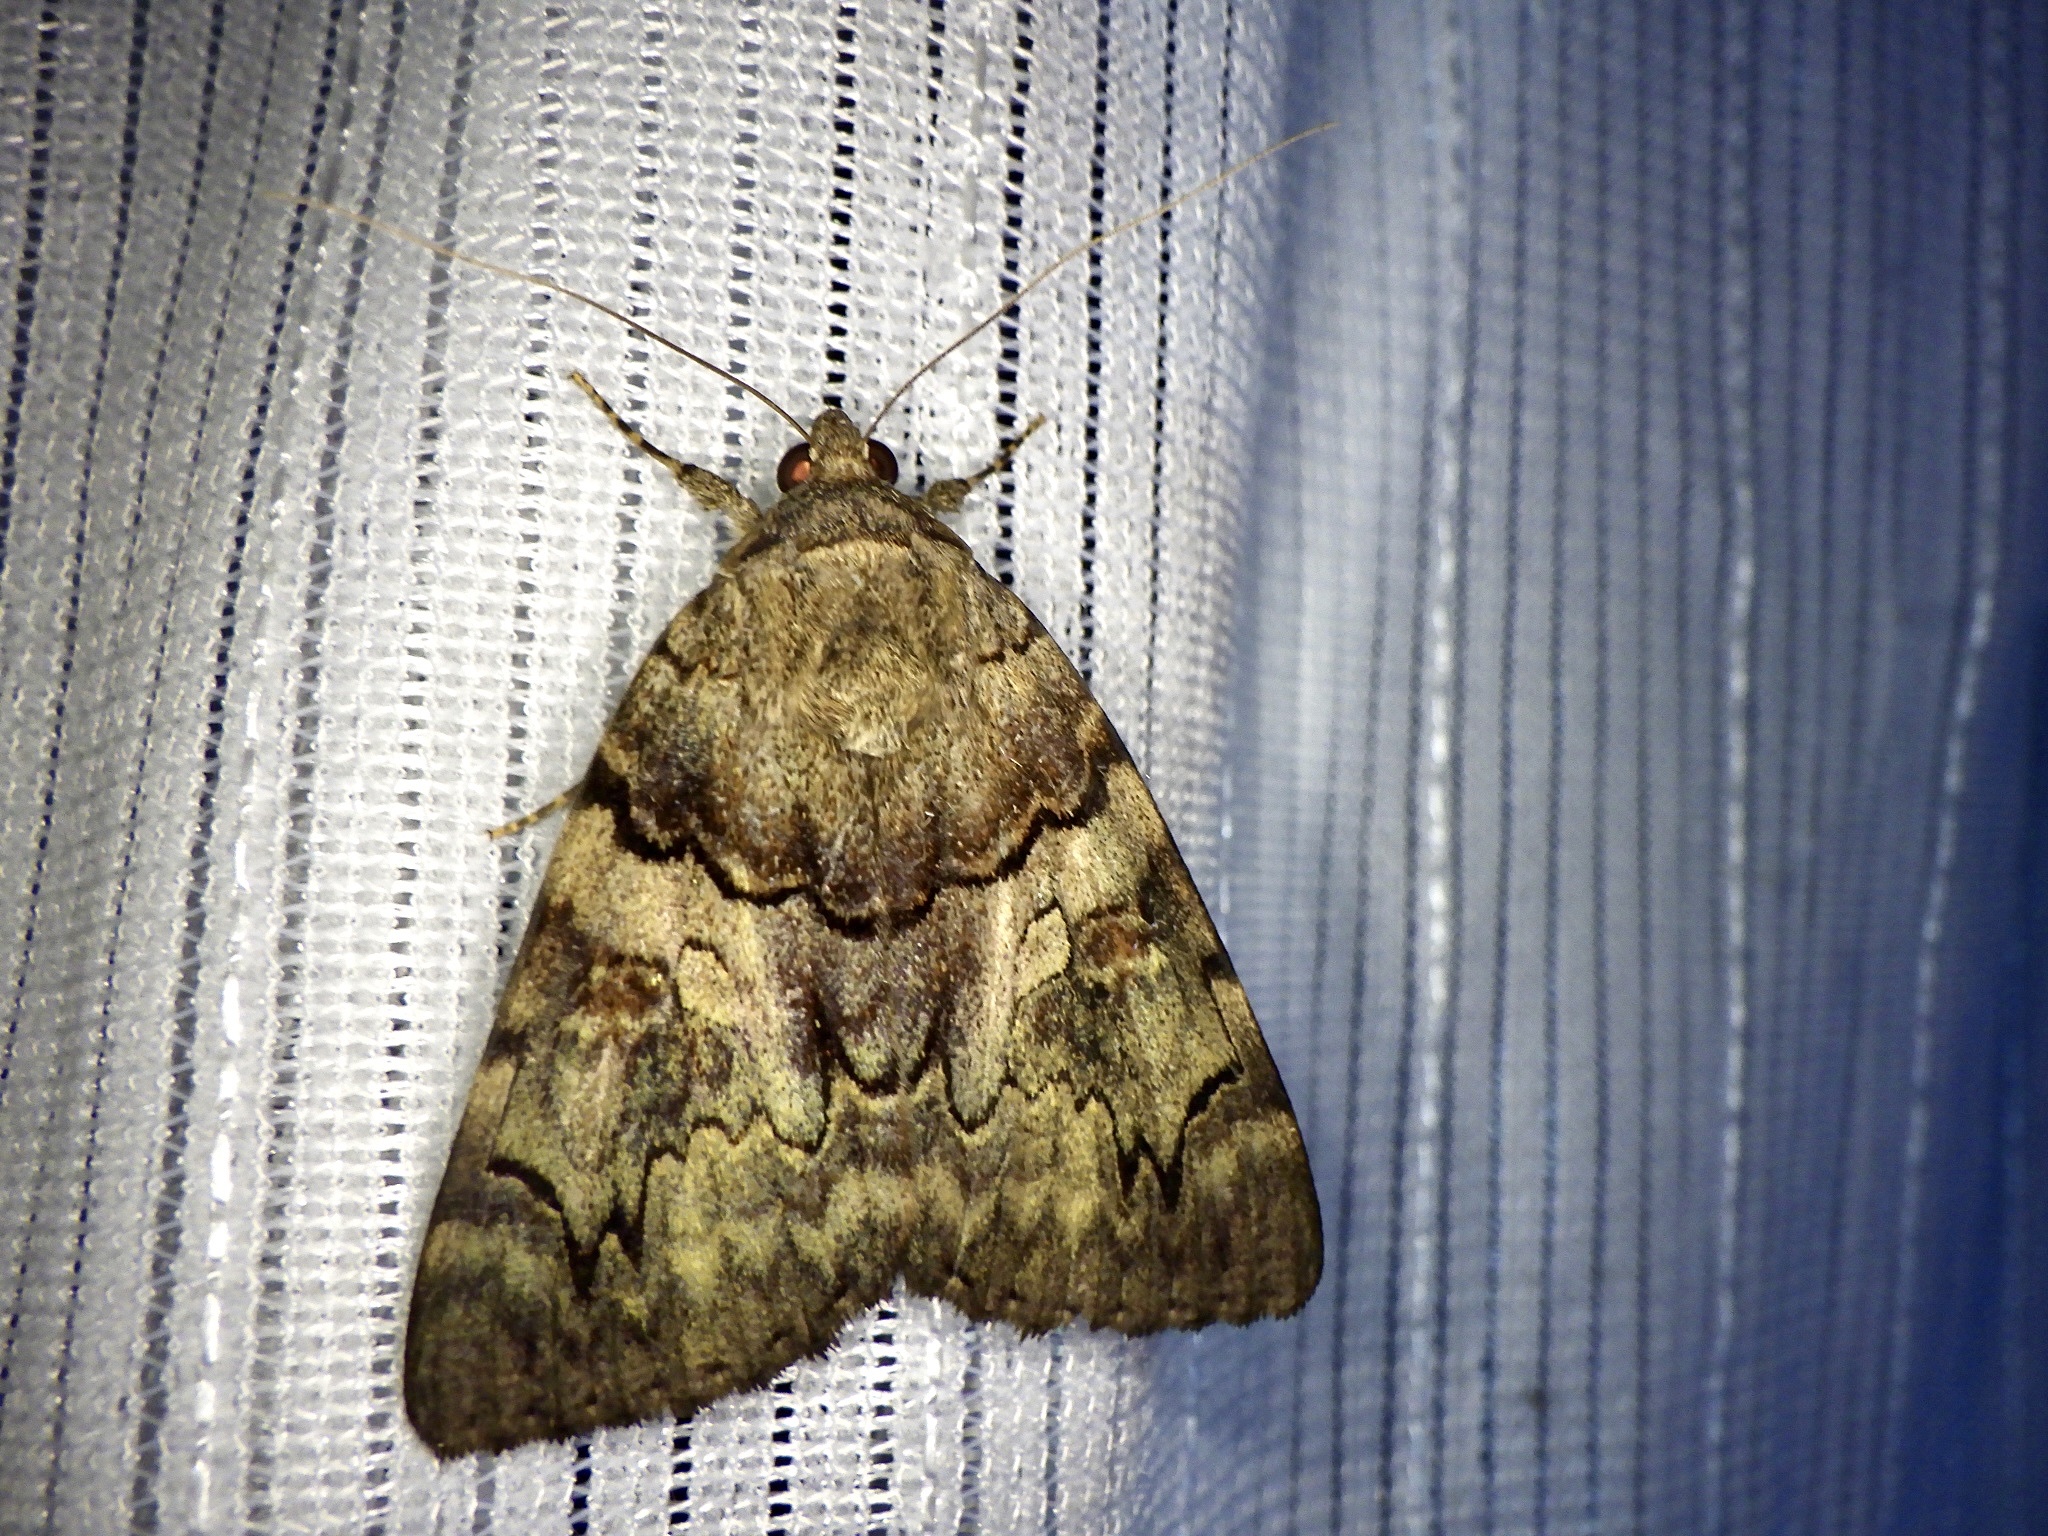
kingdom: Animalia
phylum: Arthropoda
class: Insecta
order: Lepidoptera
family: Erebidae
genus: Catocala
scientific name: Catocala patala
